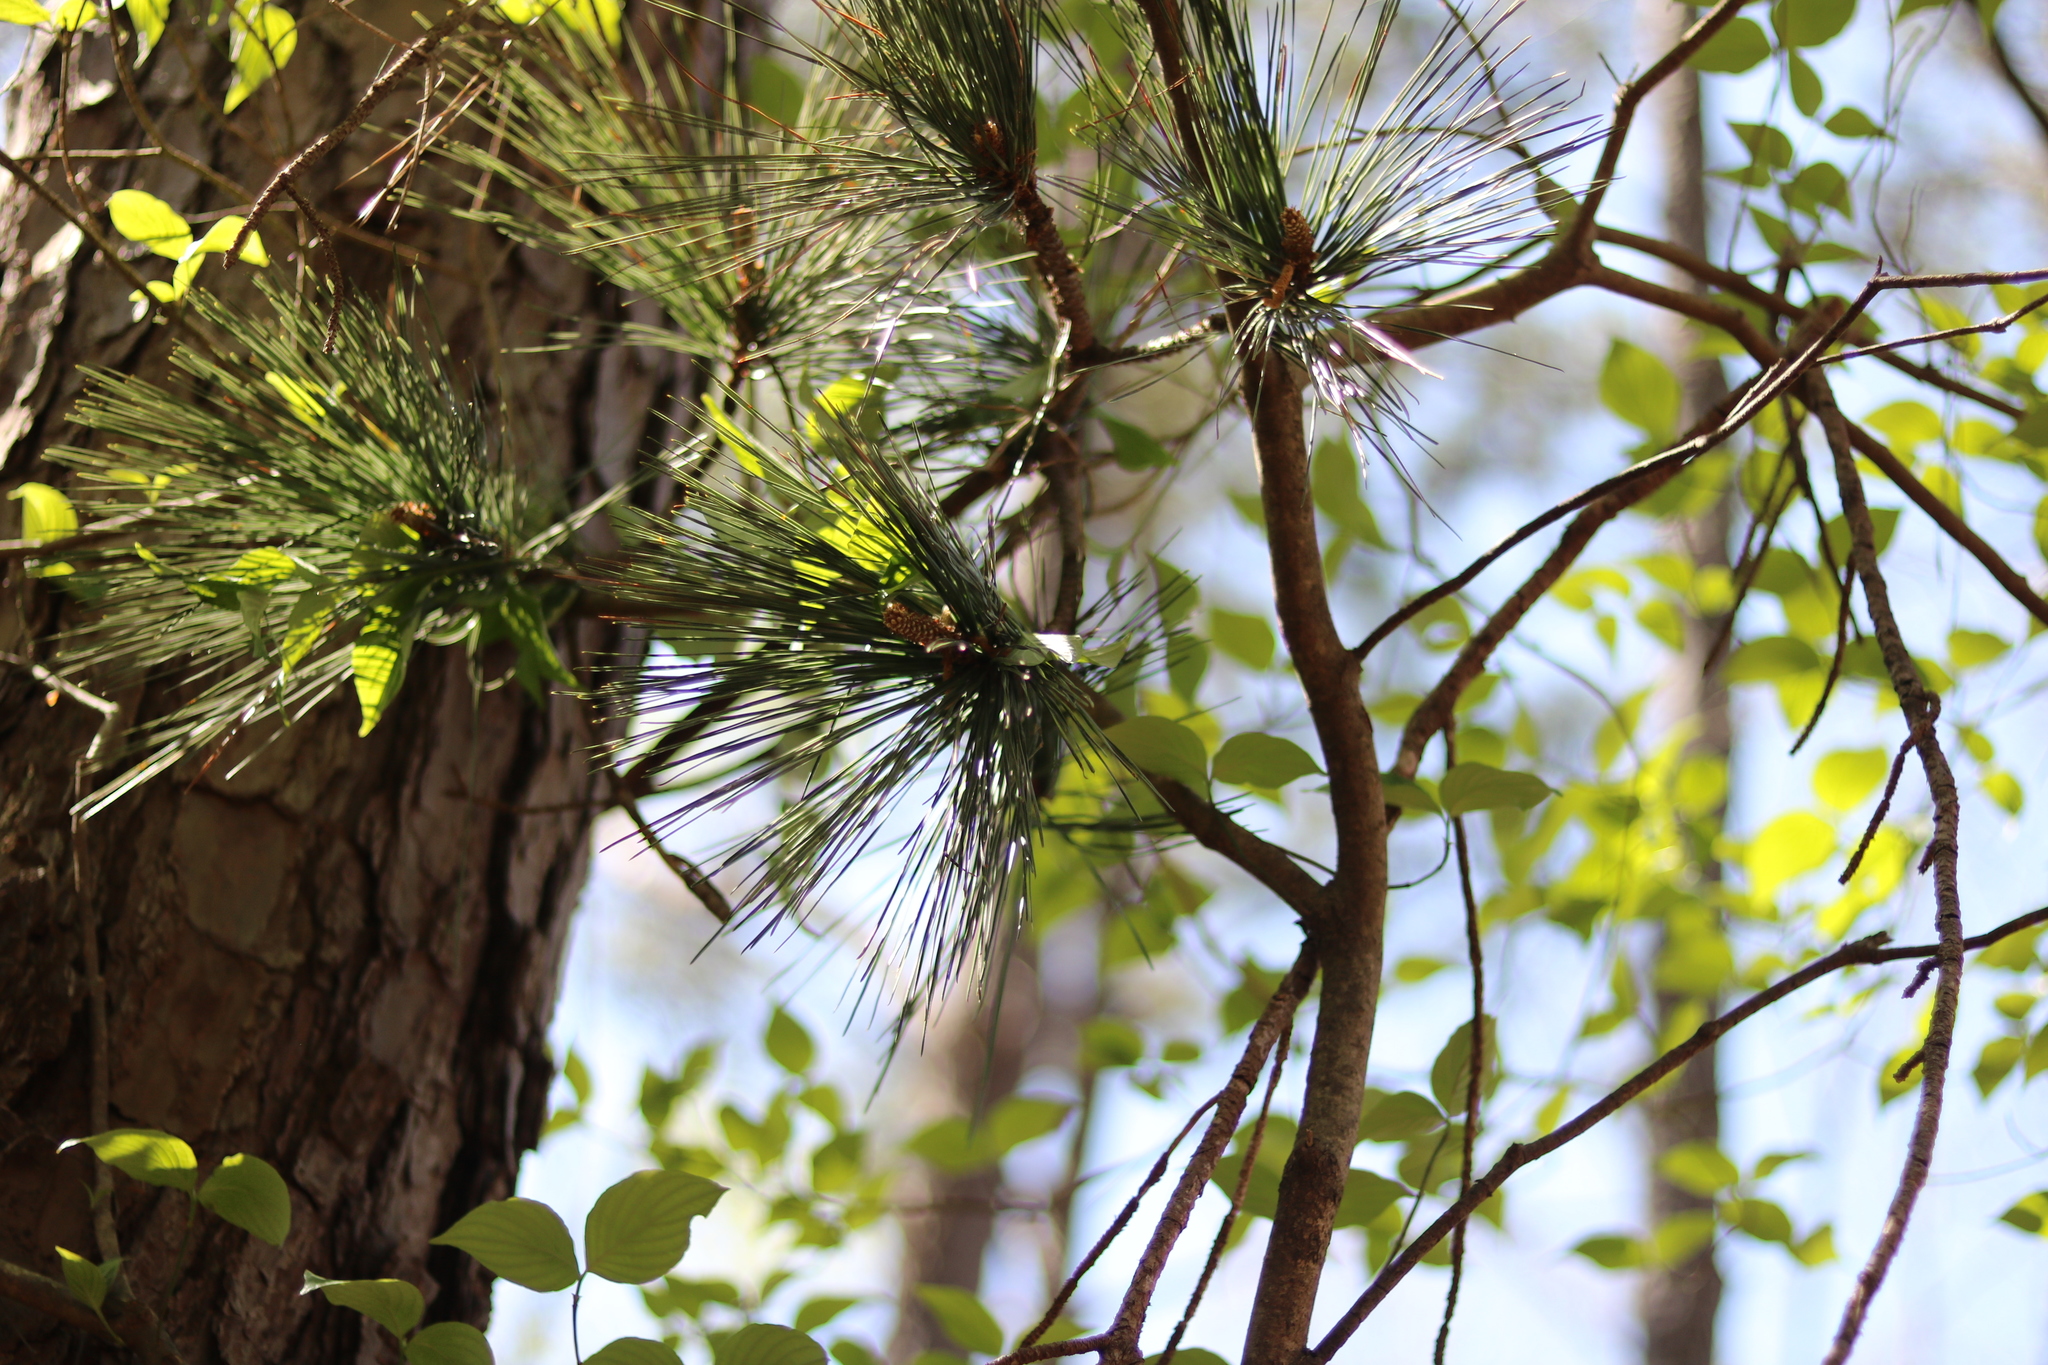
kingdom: Plantae
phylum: Tracheophyta
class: Pinopsida
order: Pinales
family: Pinaceae
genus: Pinus
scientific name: Pinus taeda
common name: Loblolly pine
